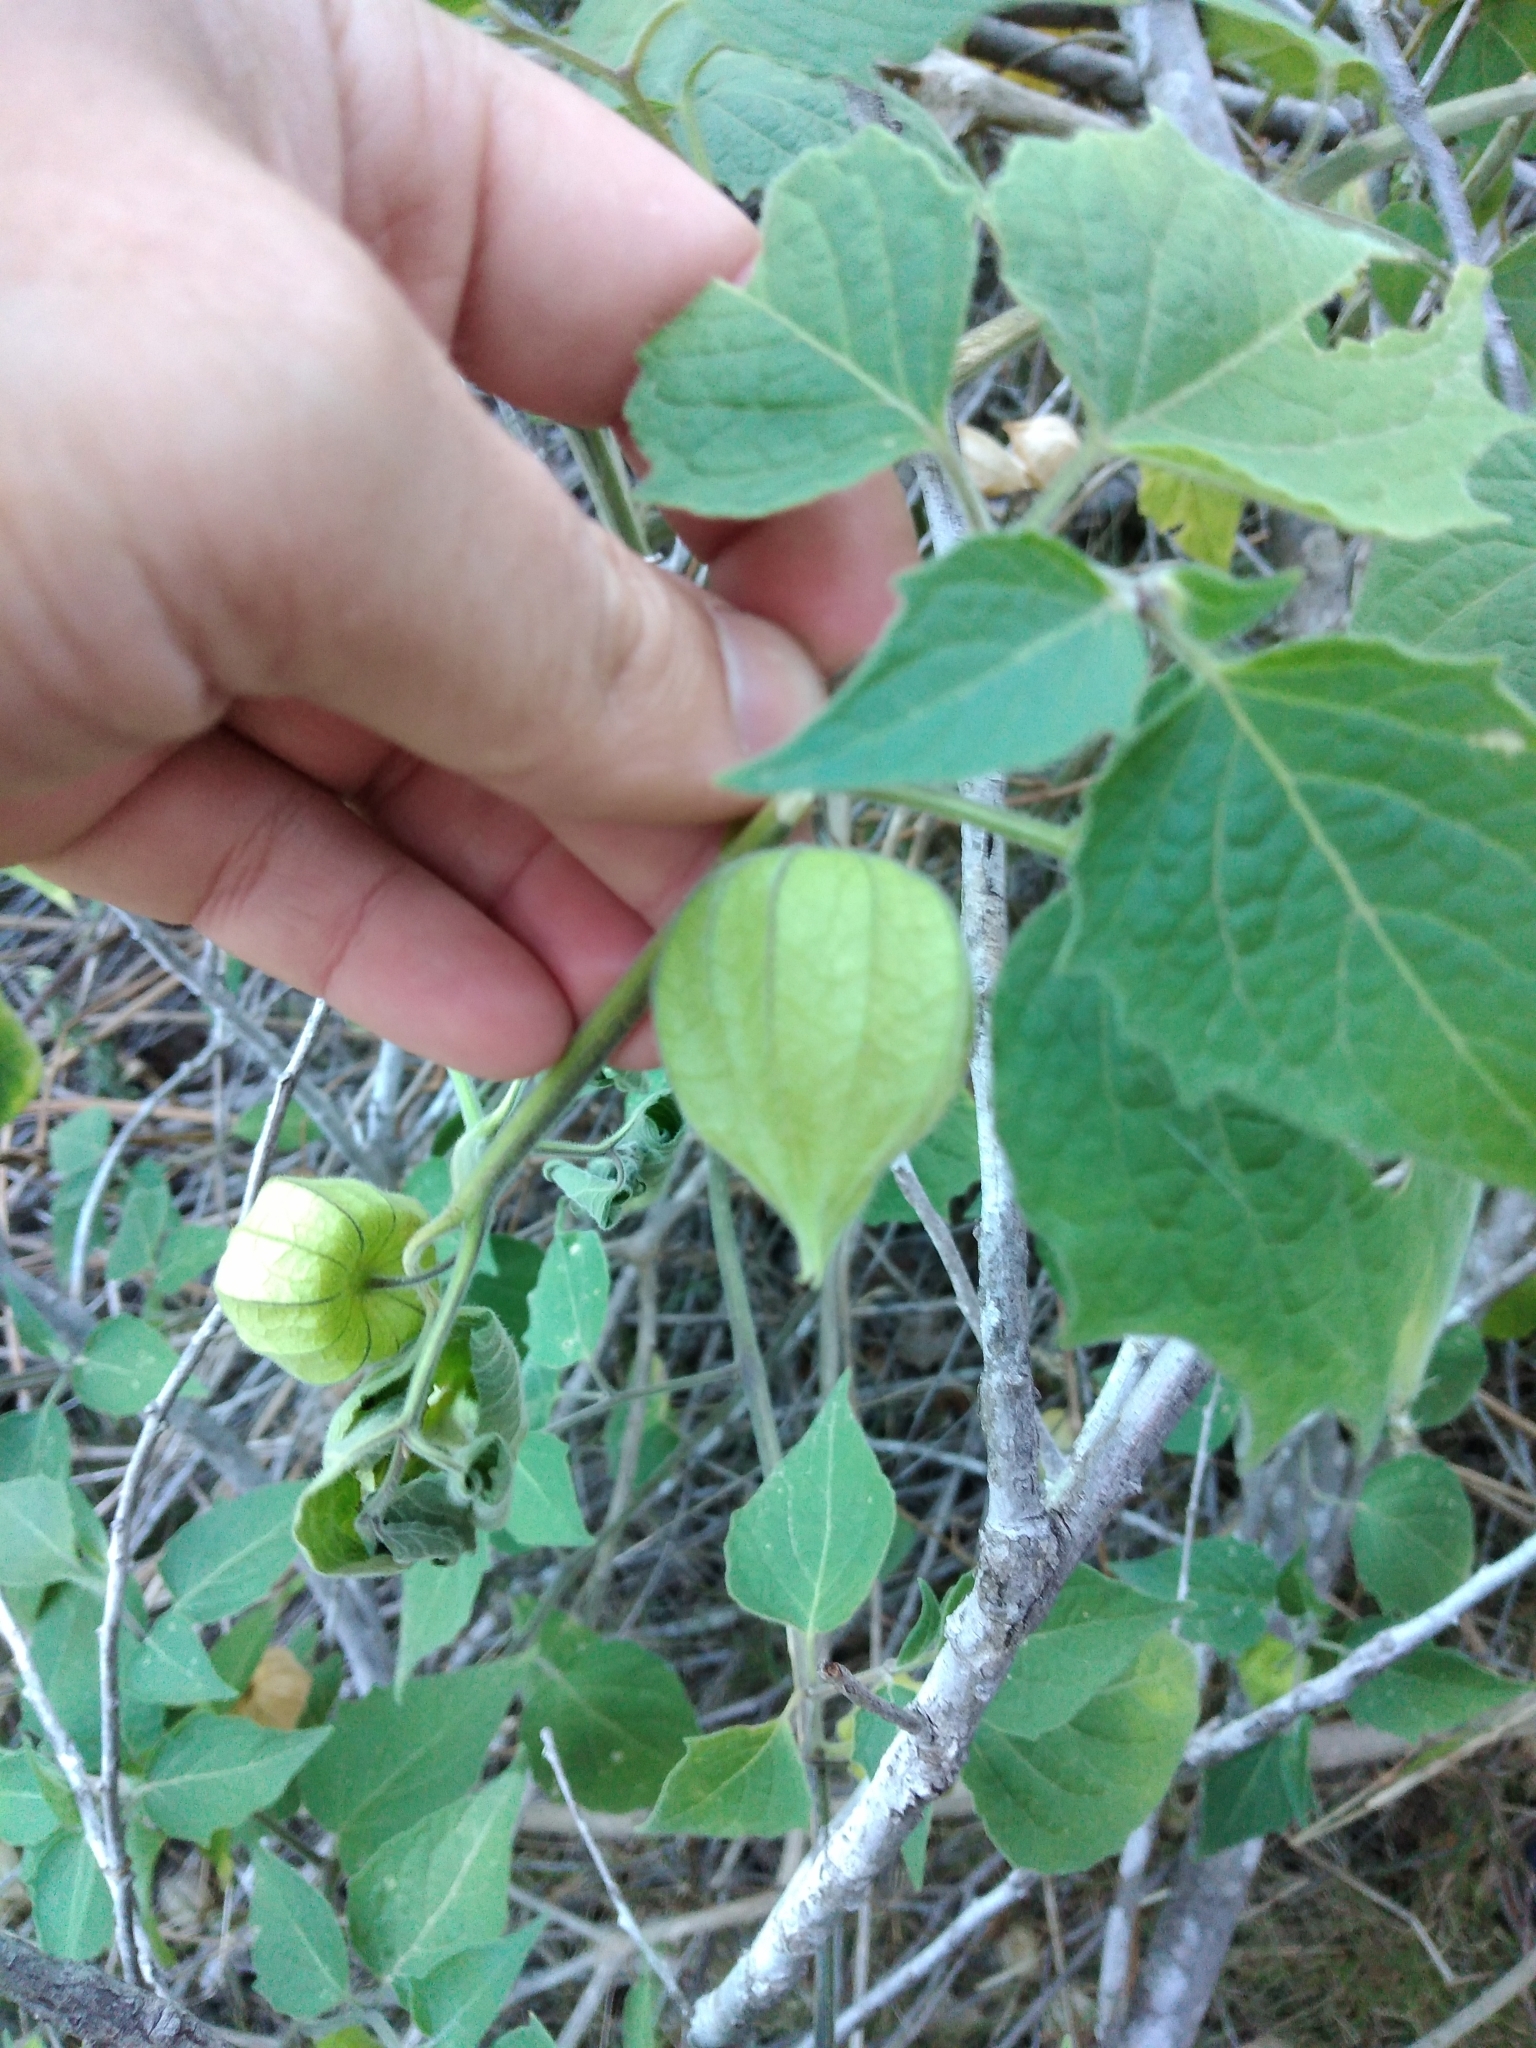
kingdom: Plantae
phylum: Tracheophyta
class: Magnoliopsida
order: Solanales
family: Solanaceae
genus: Physalis
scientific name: Physalis peruviana
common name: Cape-gooseberry
